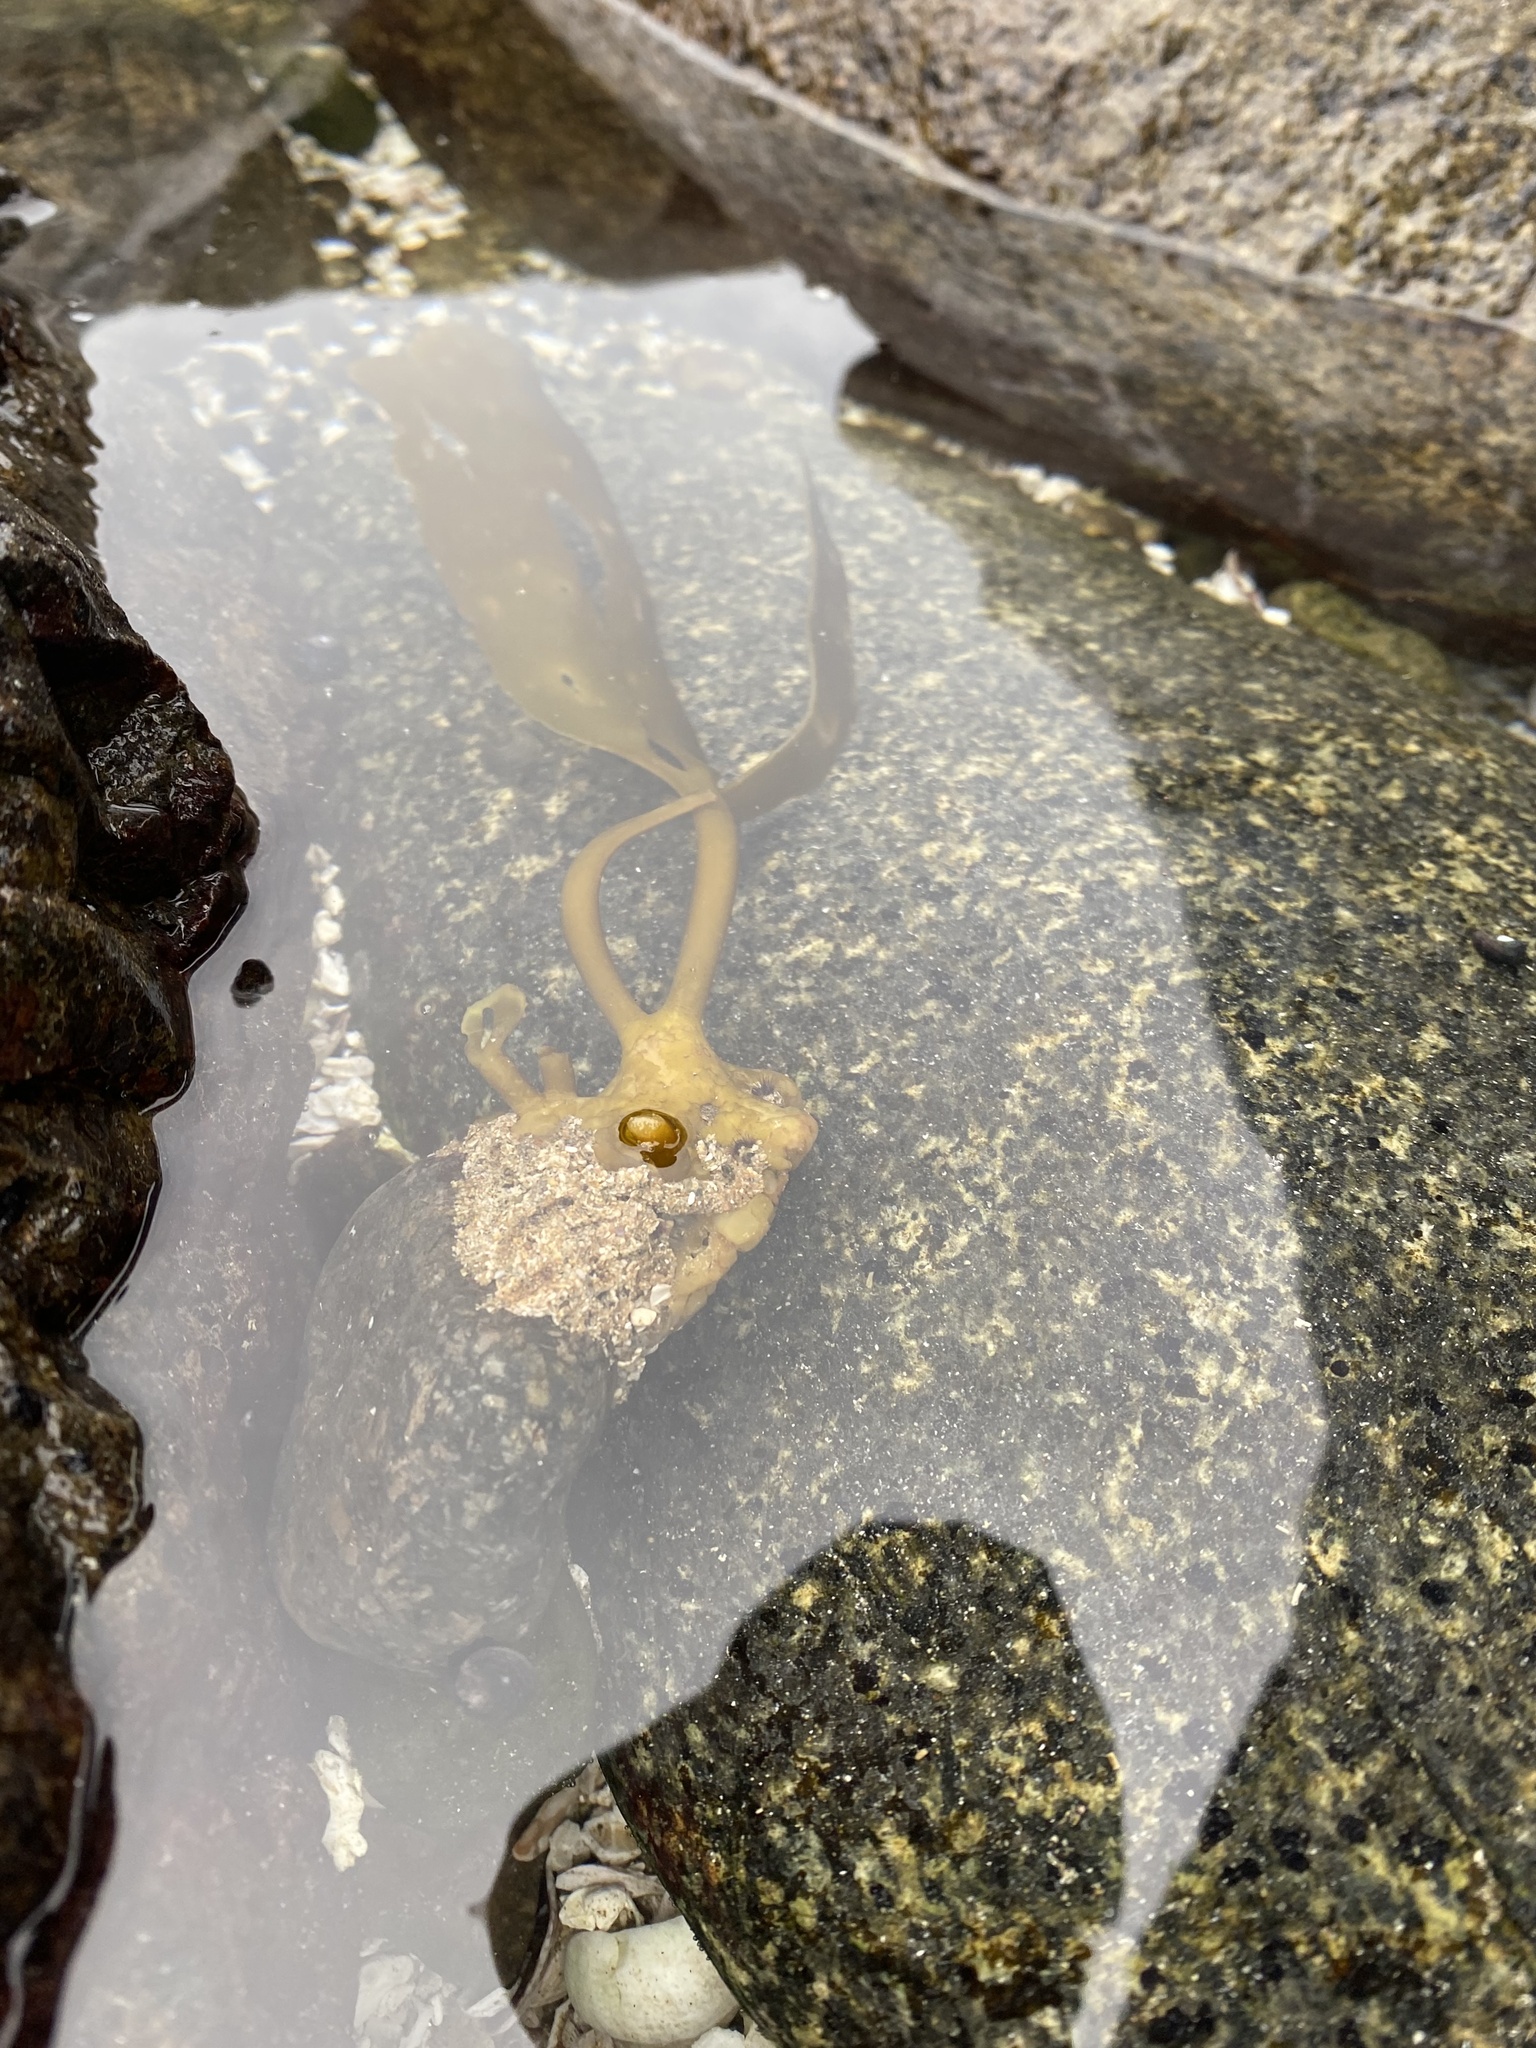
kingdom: Chromista
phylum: Ochrophyta
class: Phaeophyceae
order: Laminariales
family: Lessoniaceae
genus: Lessonia
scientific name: Lessonia spicata
